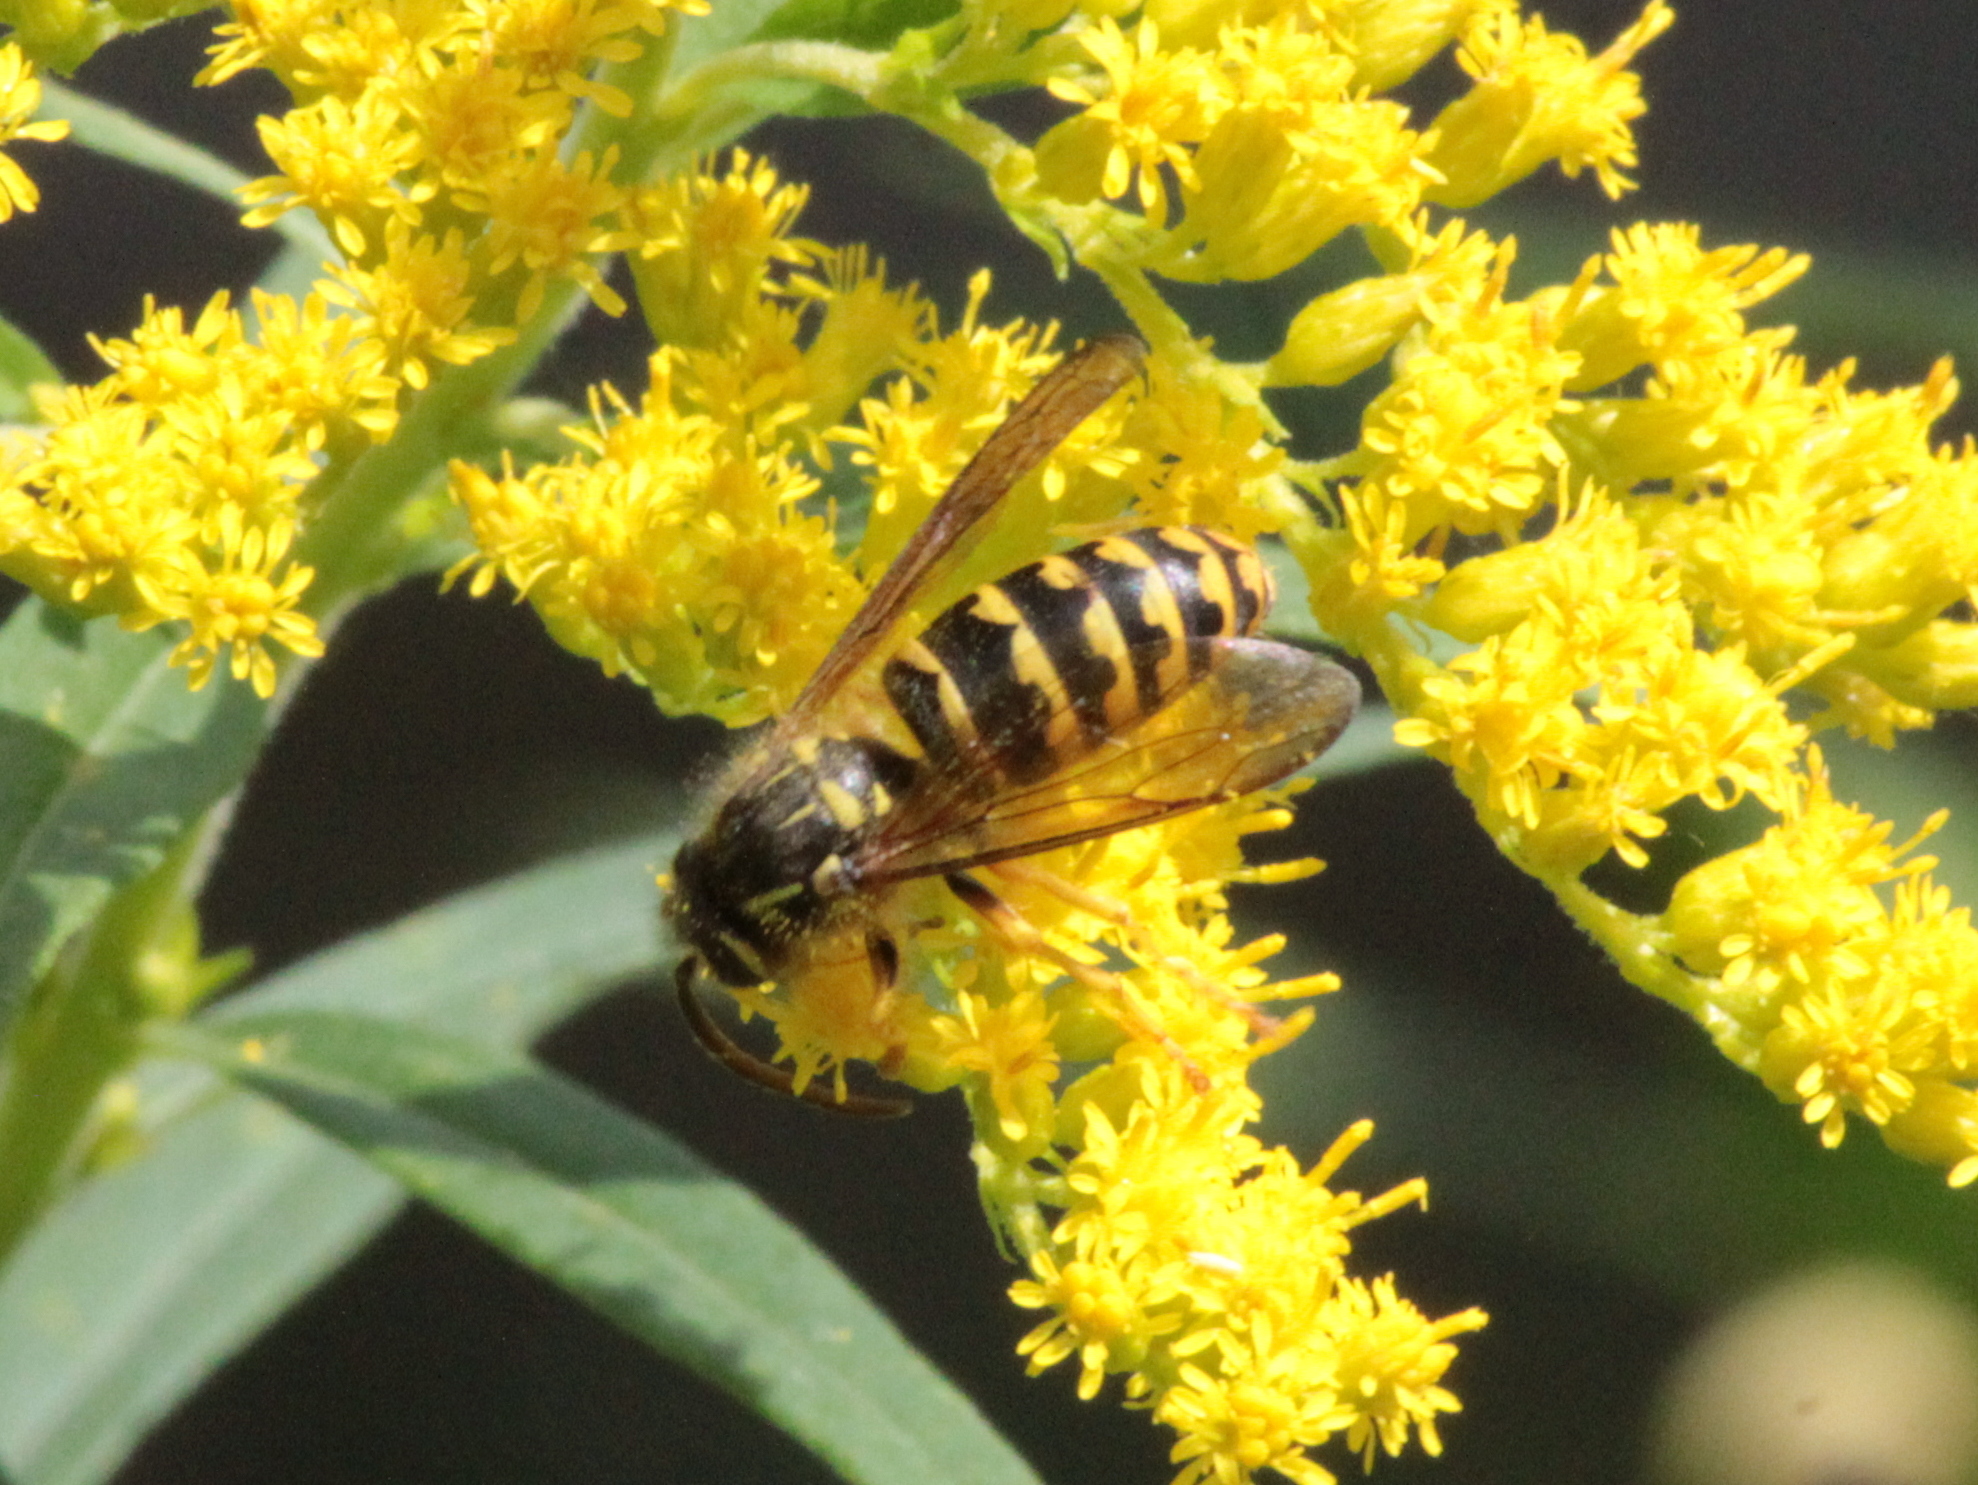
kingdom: Animalia
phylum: Arthropoda
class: Insecta
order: Hymenoptera
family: Vespidae
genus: Dolichovespula
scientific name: Dolichovespula arenaria
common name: Aerial yellowjacket
